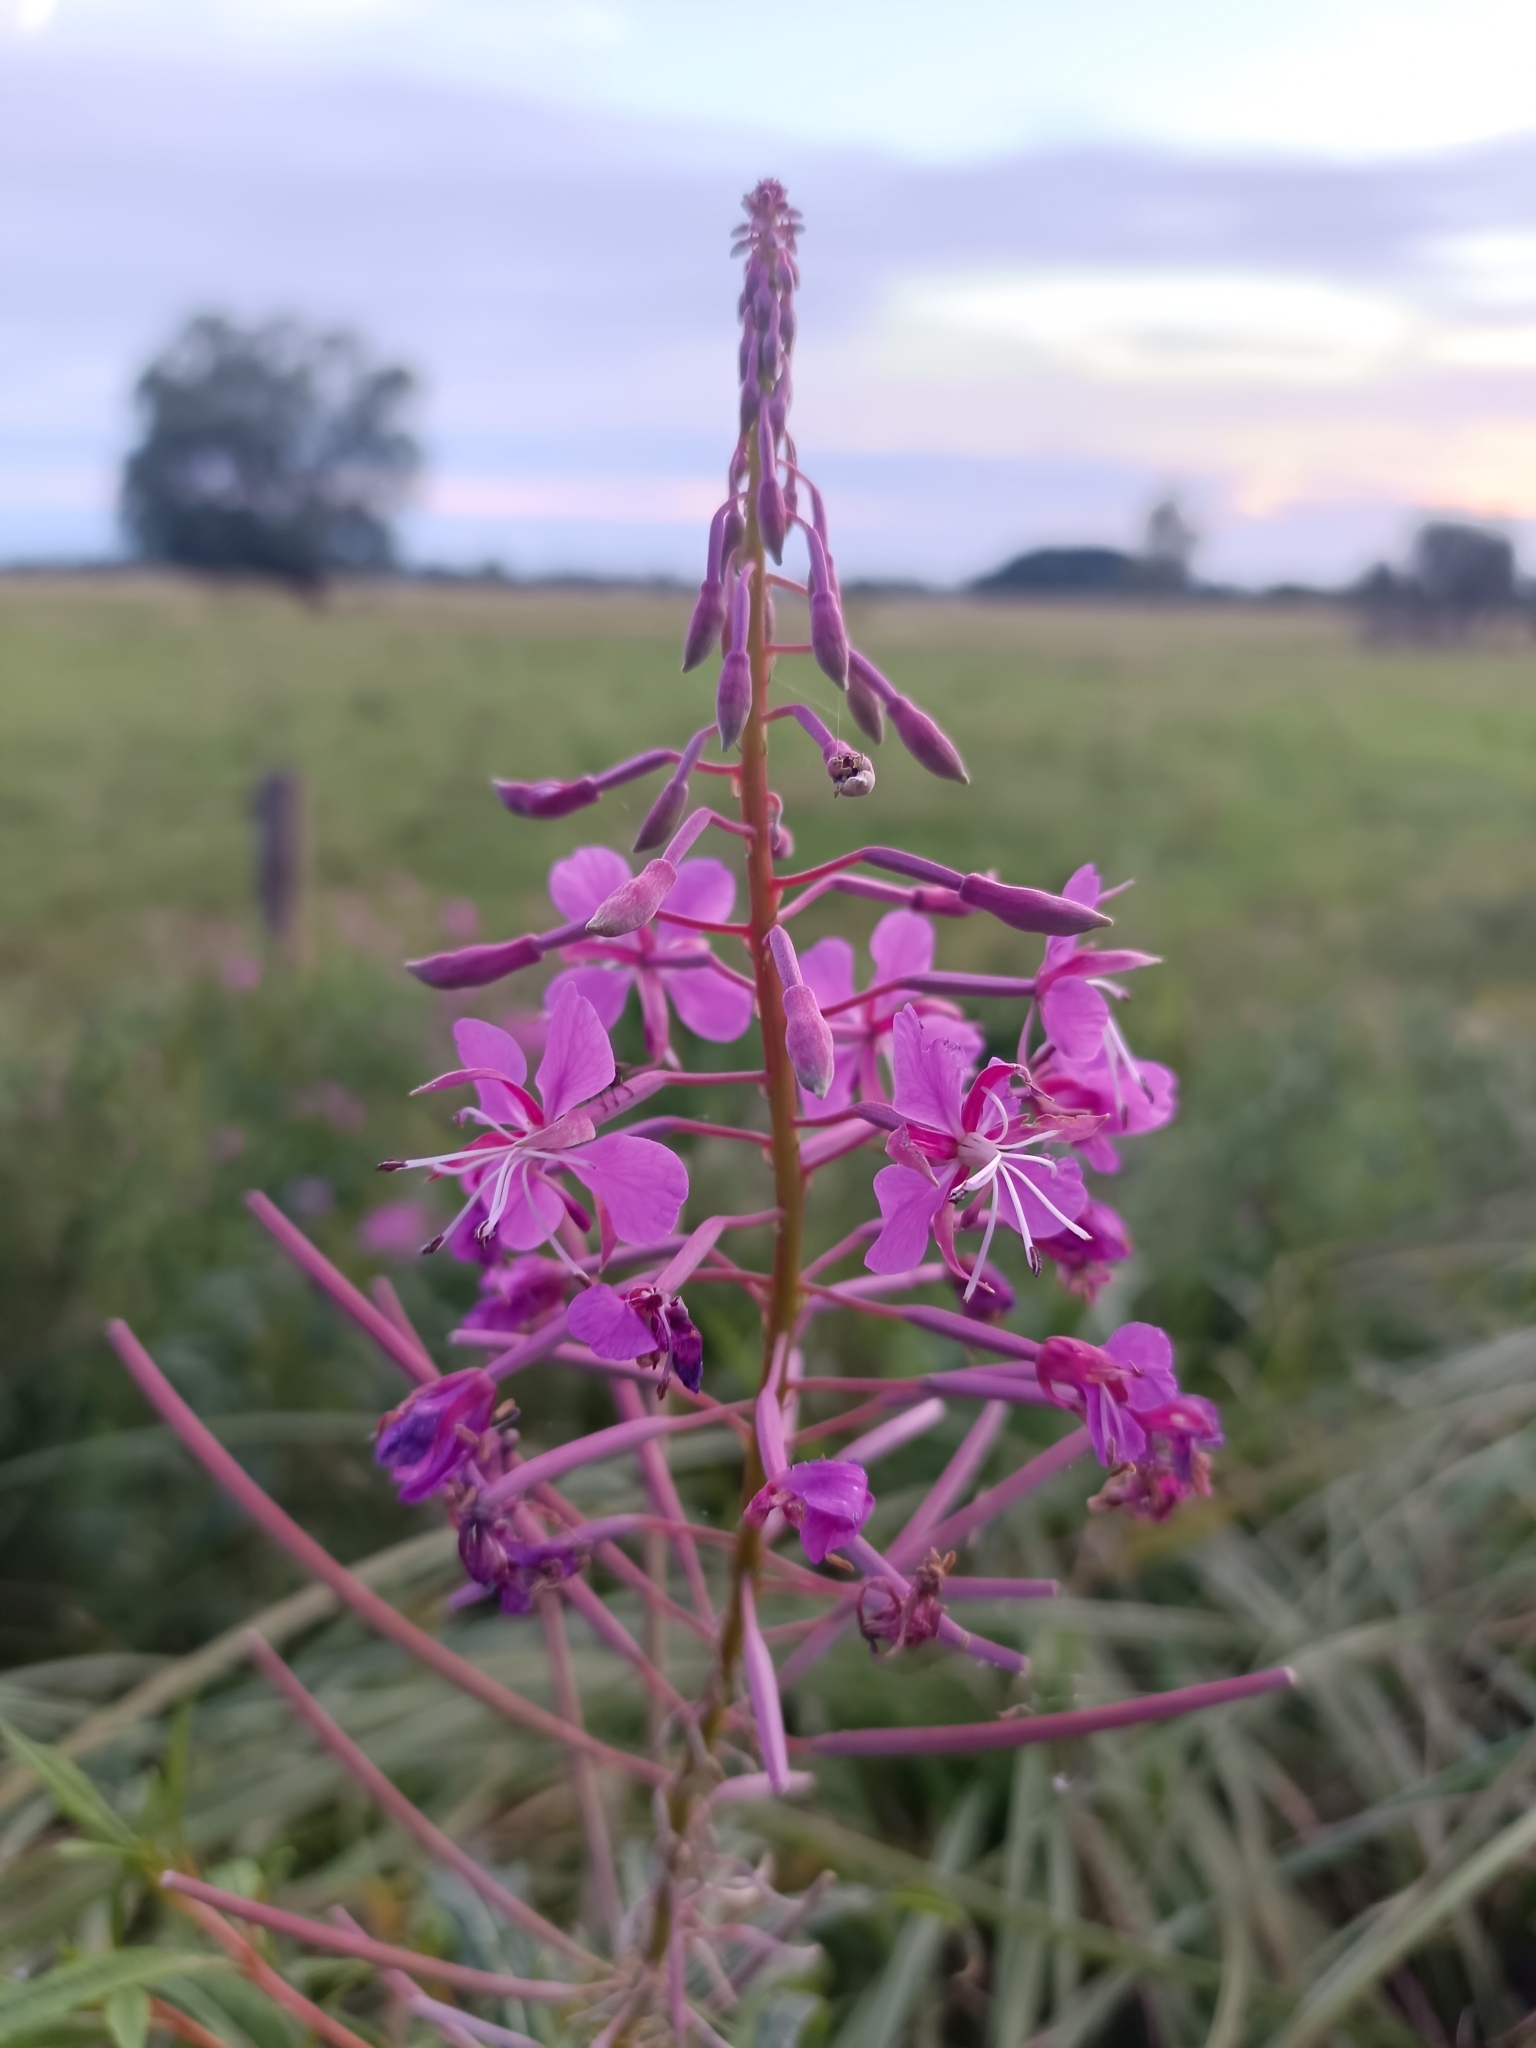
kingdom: Plantae
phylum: Tracheophyta
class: Magnoliopsida
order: Myrtales
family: Onagraceae
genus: Chamaenerion
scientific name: Chamaenerion angustifolium
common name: Fireweed
